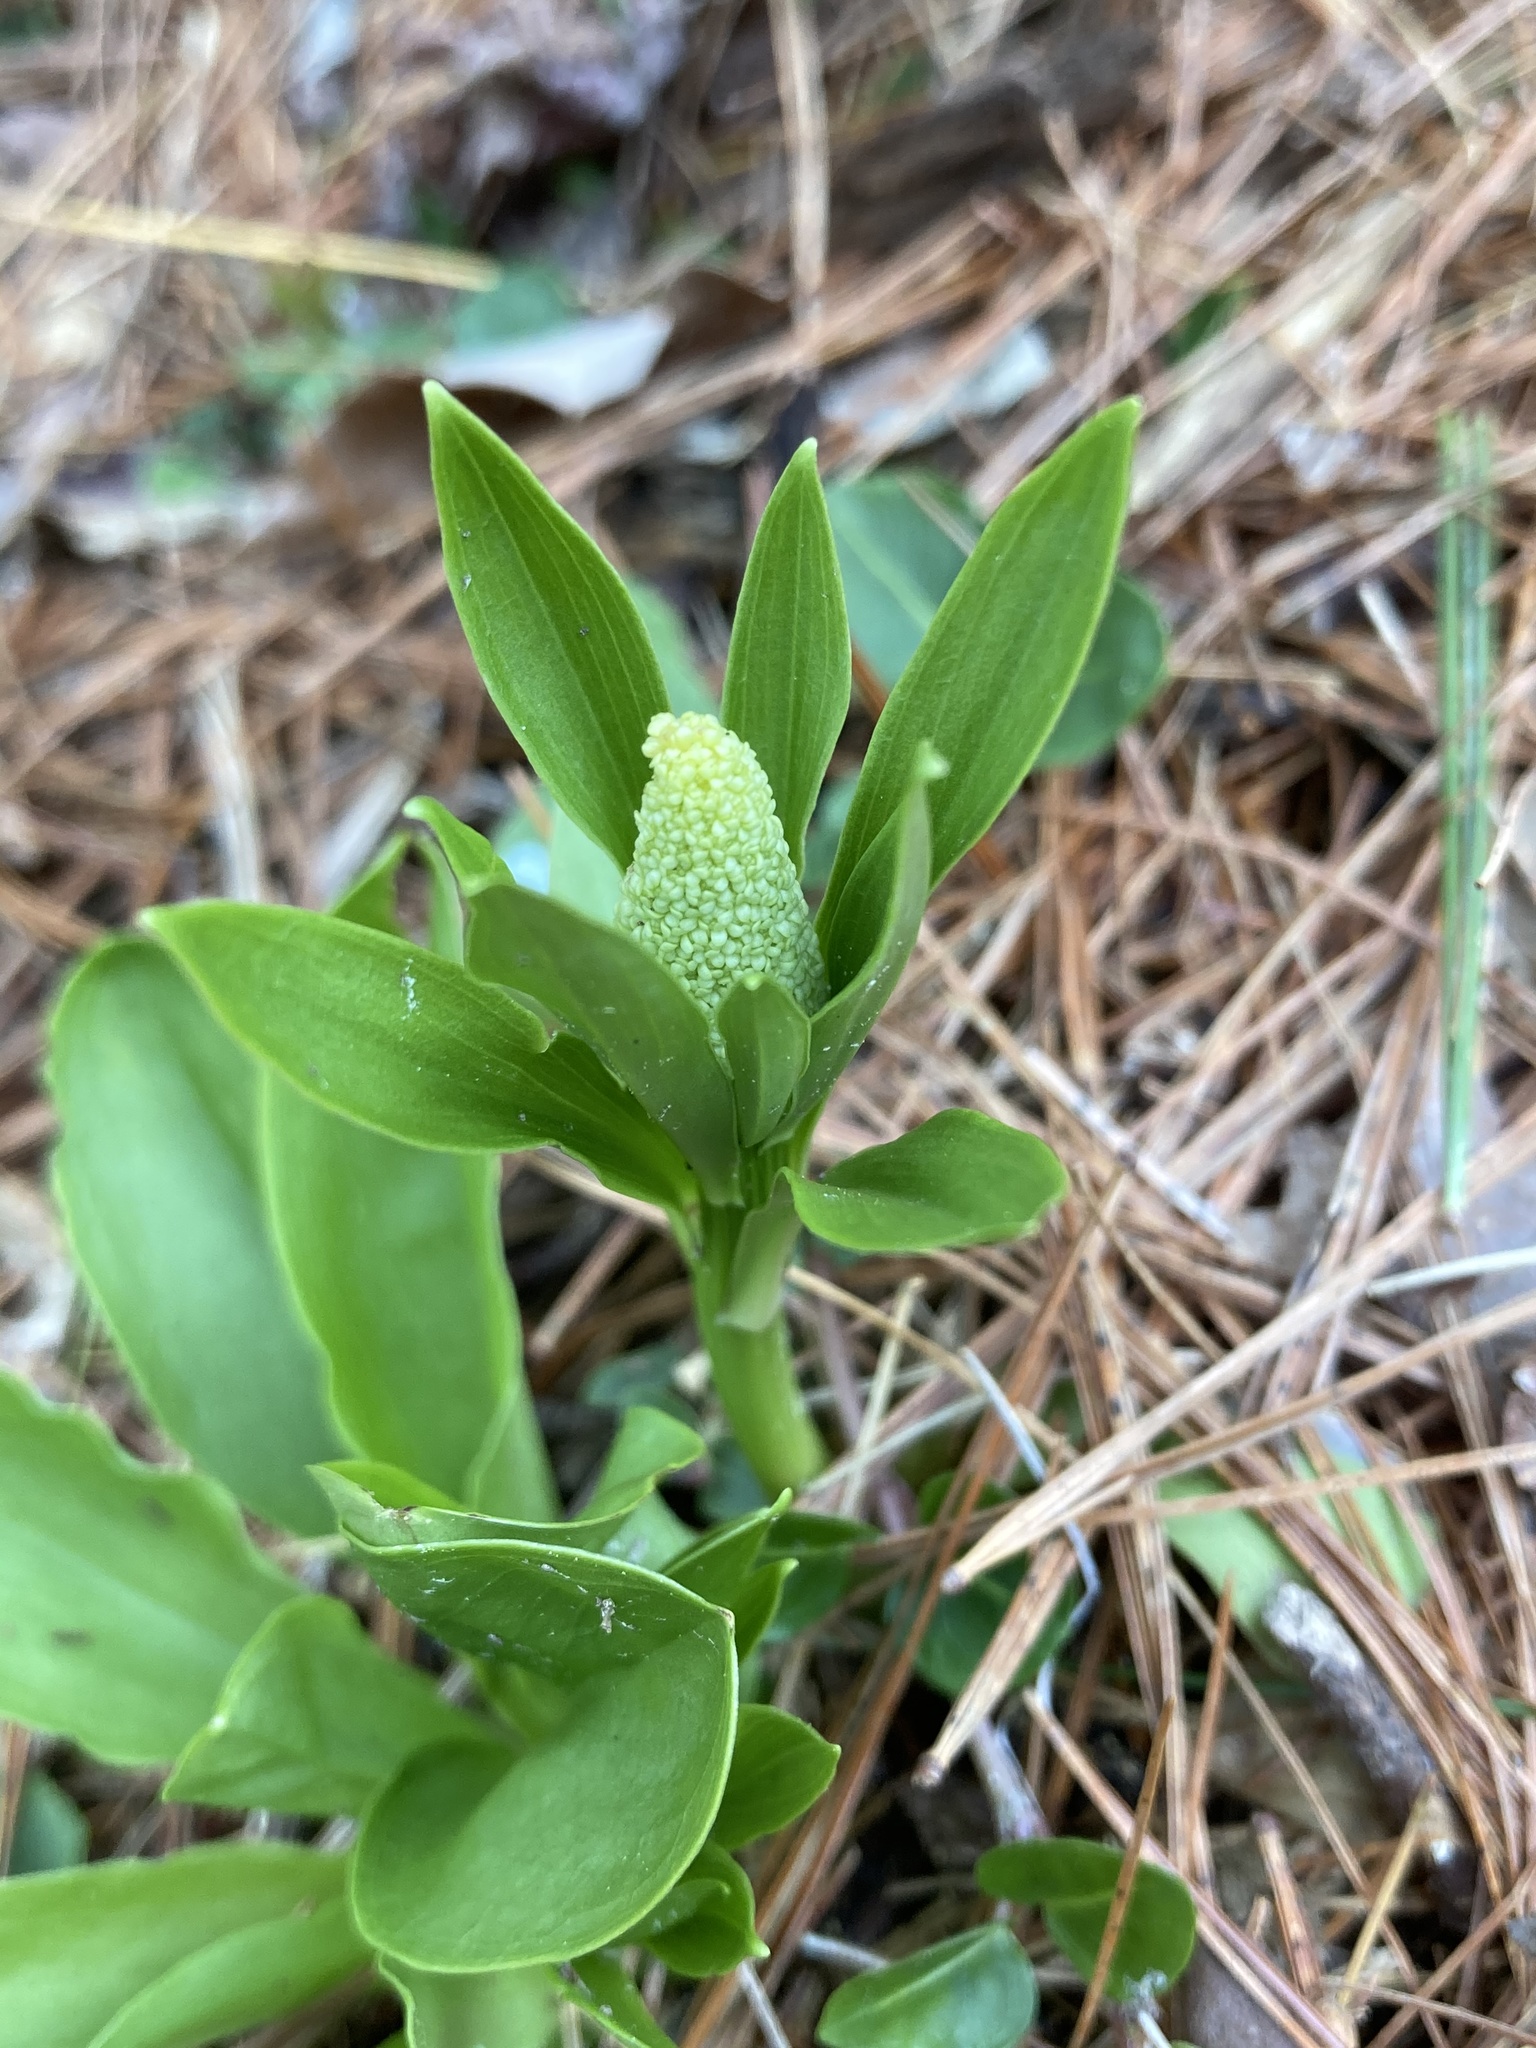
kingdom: Plantae
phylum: Tracheophyta
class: Liliopsida
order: Liliales
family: Melanthiaceae
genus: Chamaelirium
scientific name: Chamaelirium luteum
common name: Fairy-wand
